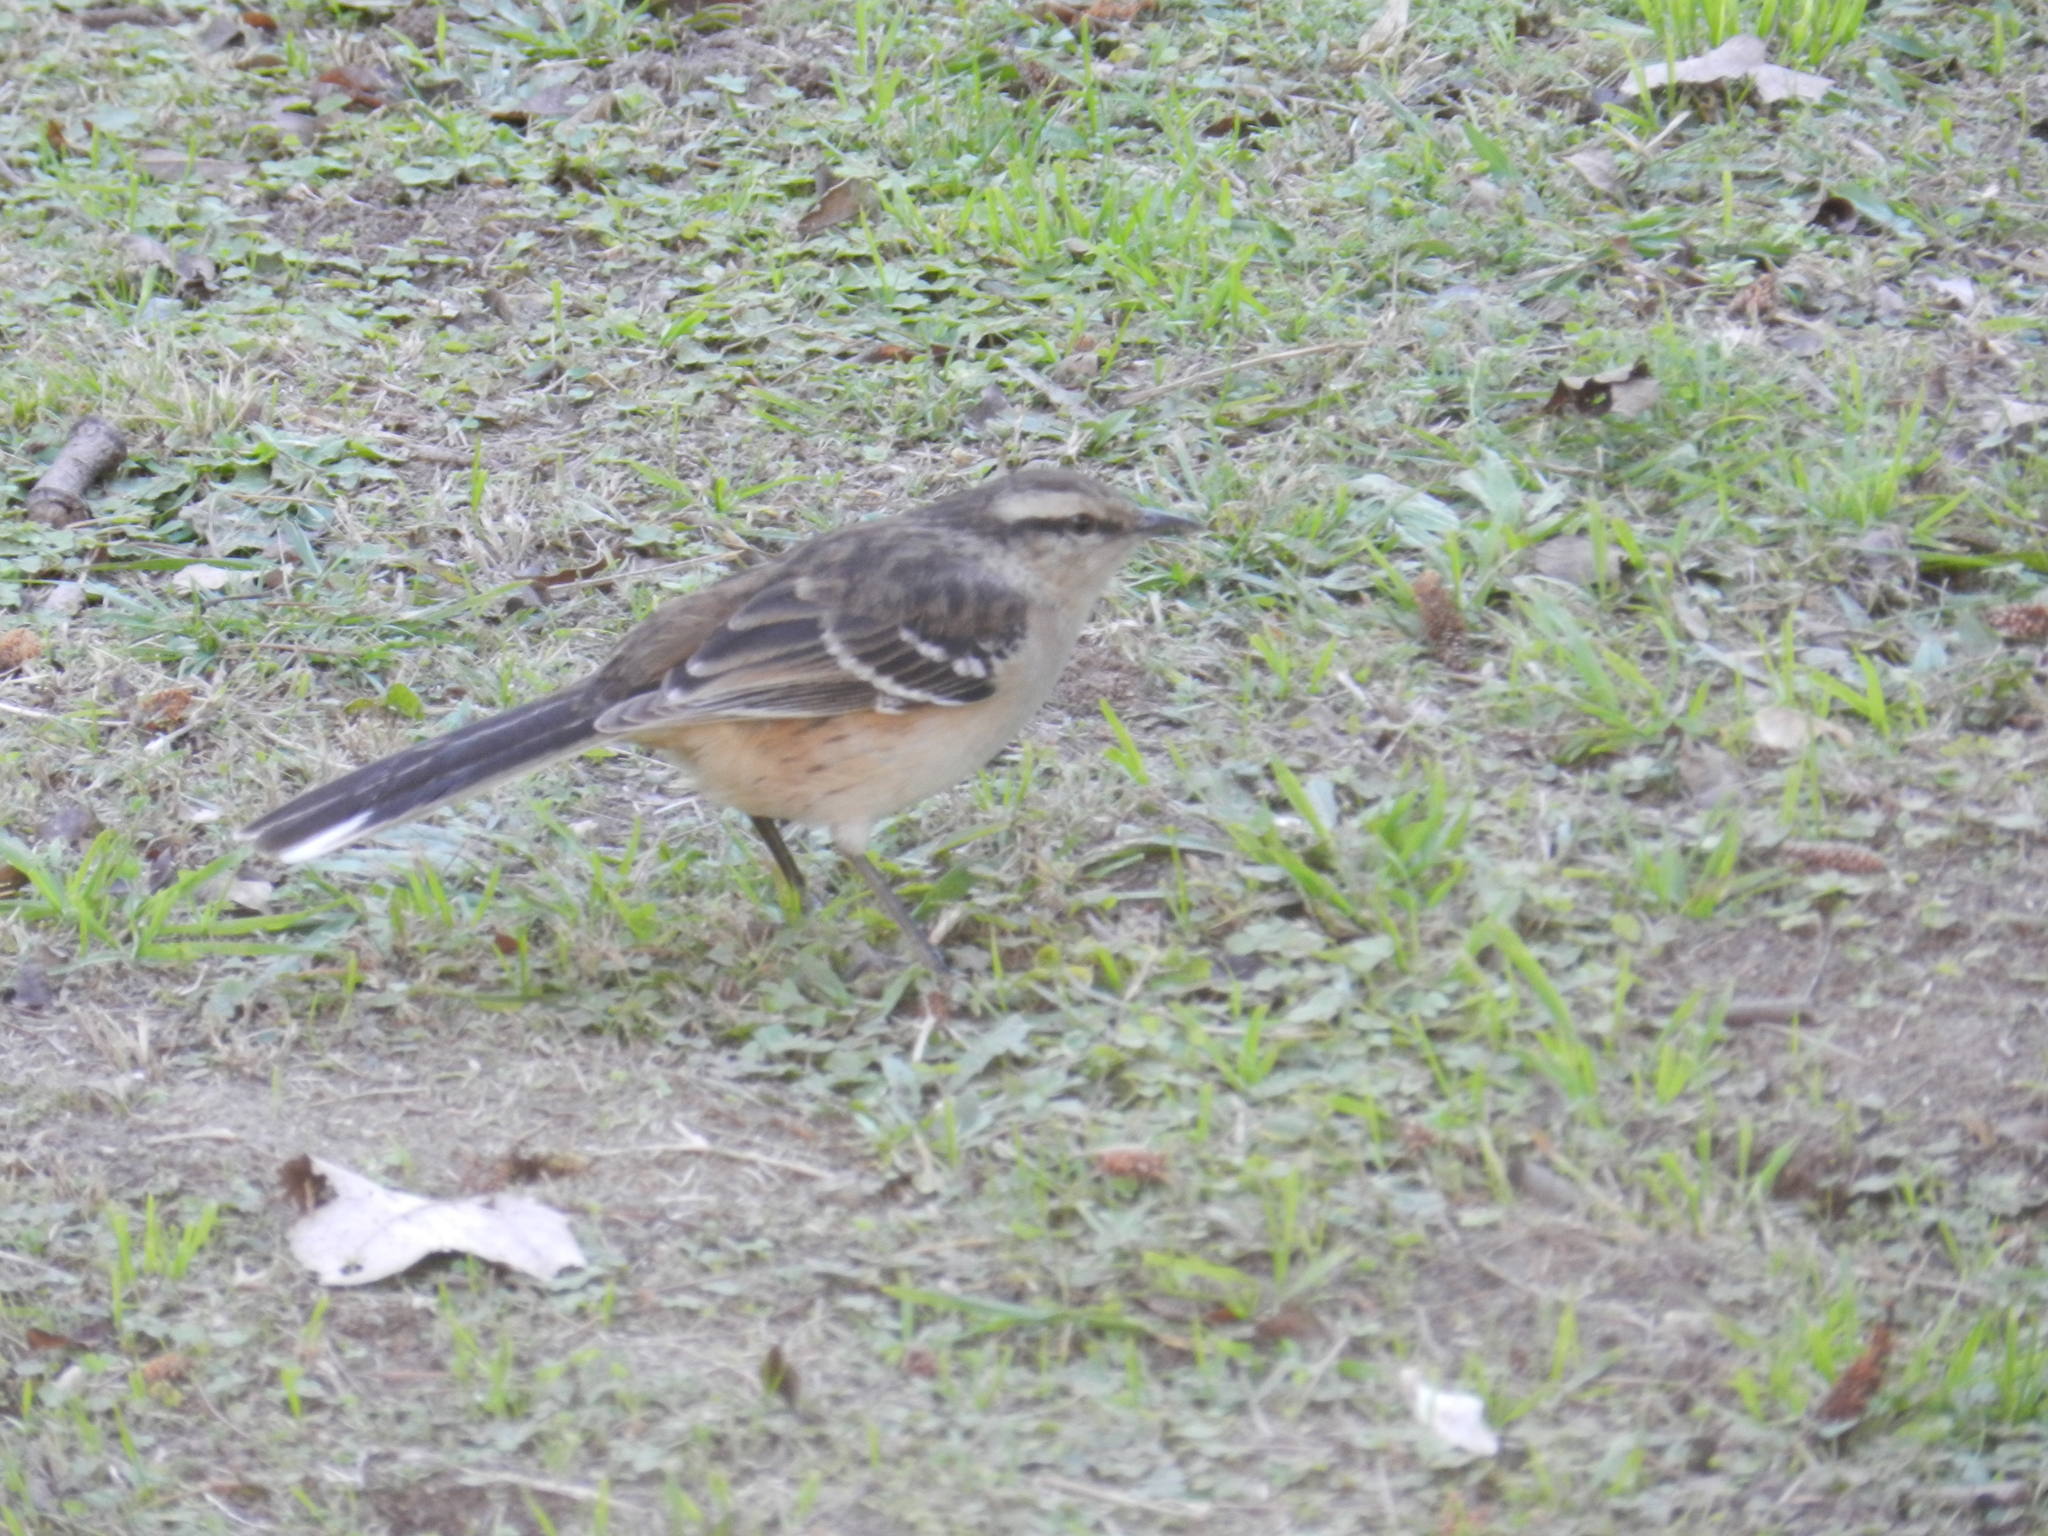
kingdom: Animalia
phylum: Chordata
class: Aves
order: Passeriformes
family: Mimidae
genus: Mimus
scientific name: Mimus saturninus
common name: Chalk-browed mockingbird
